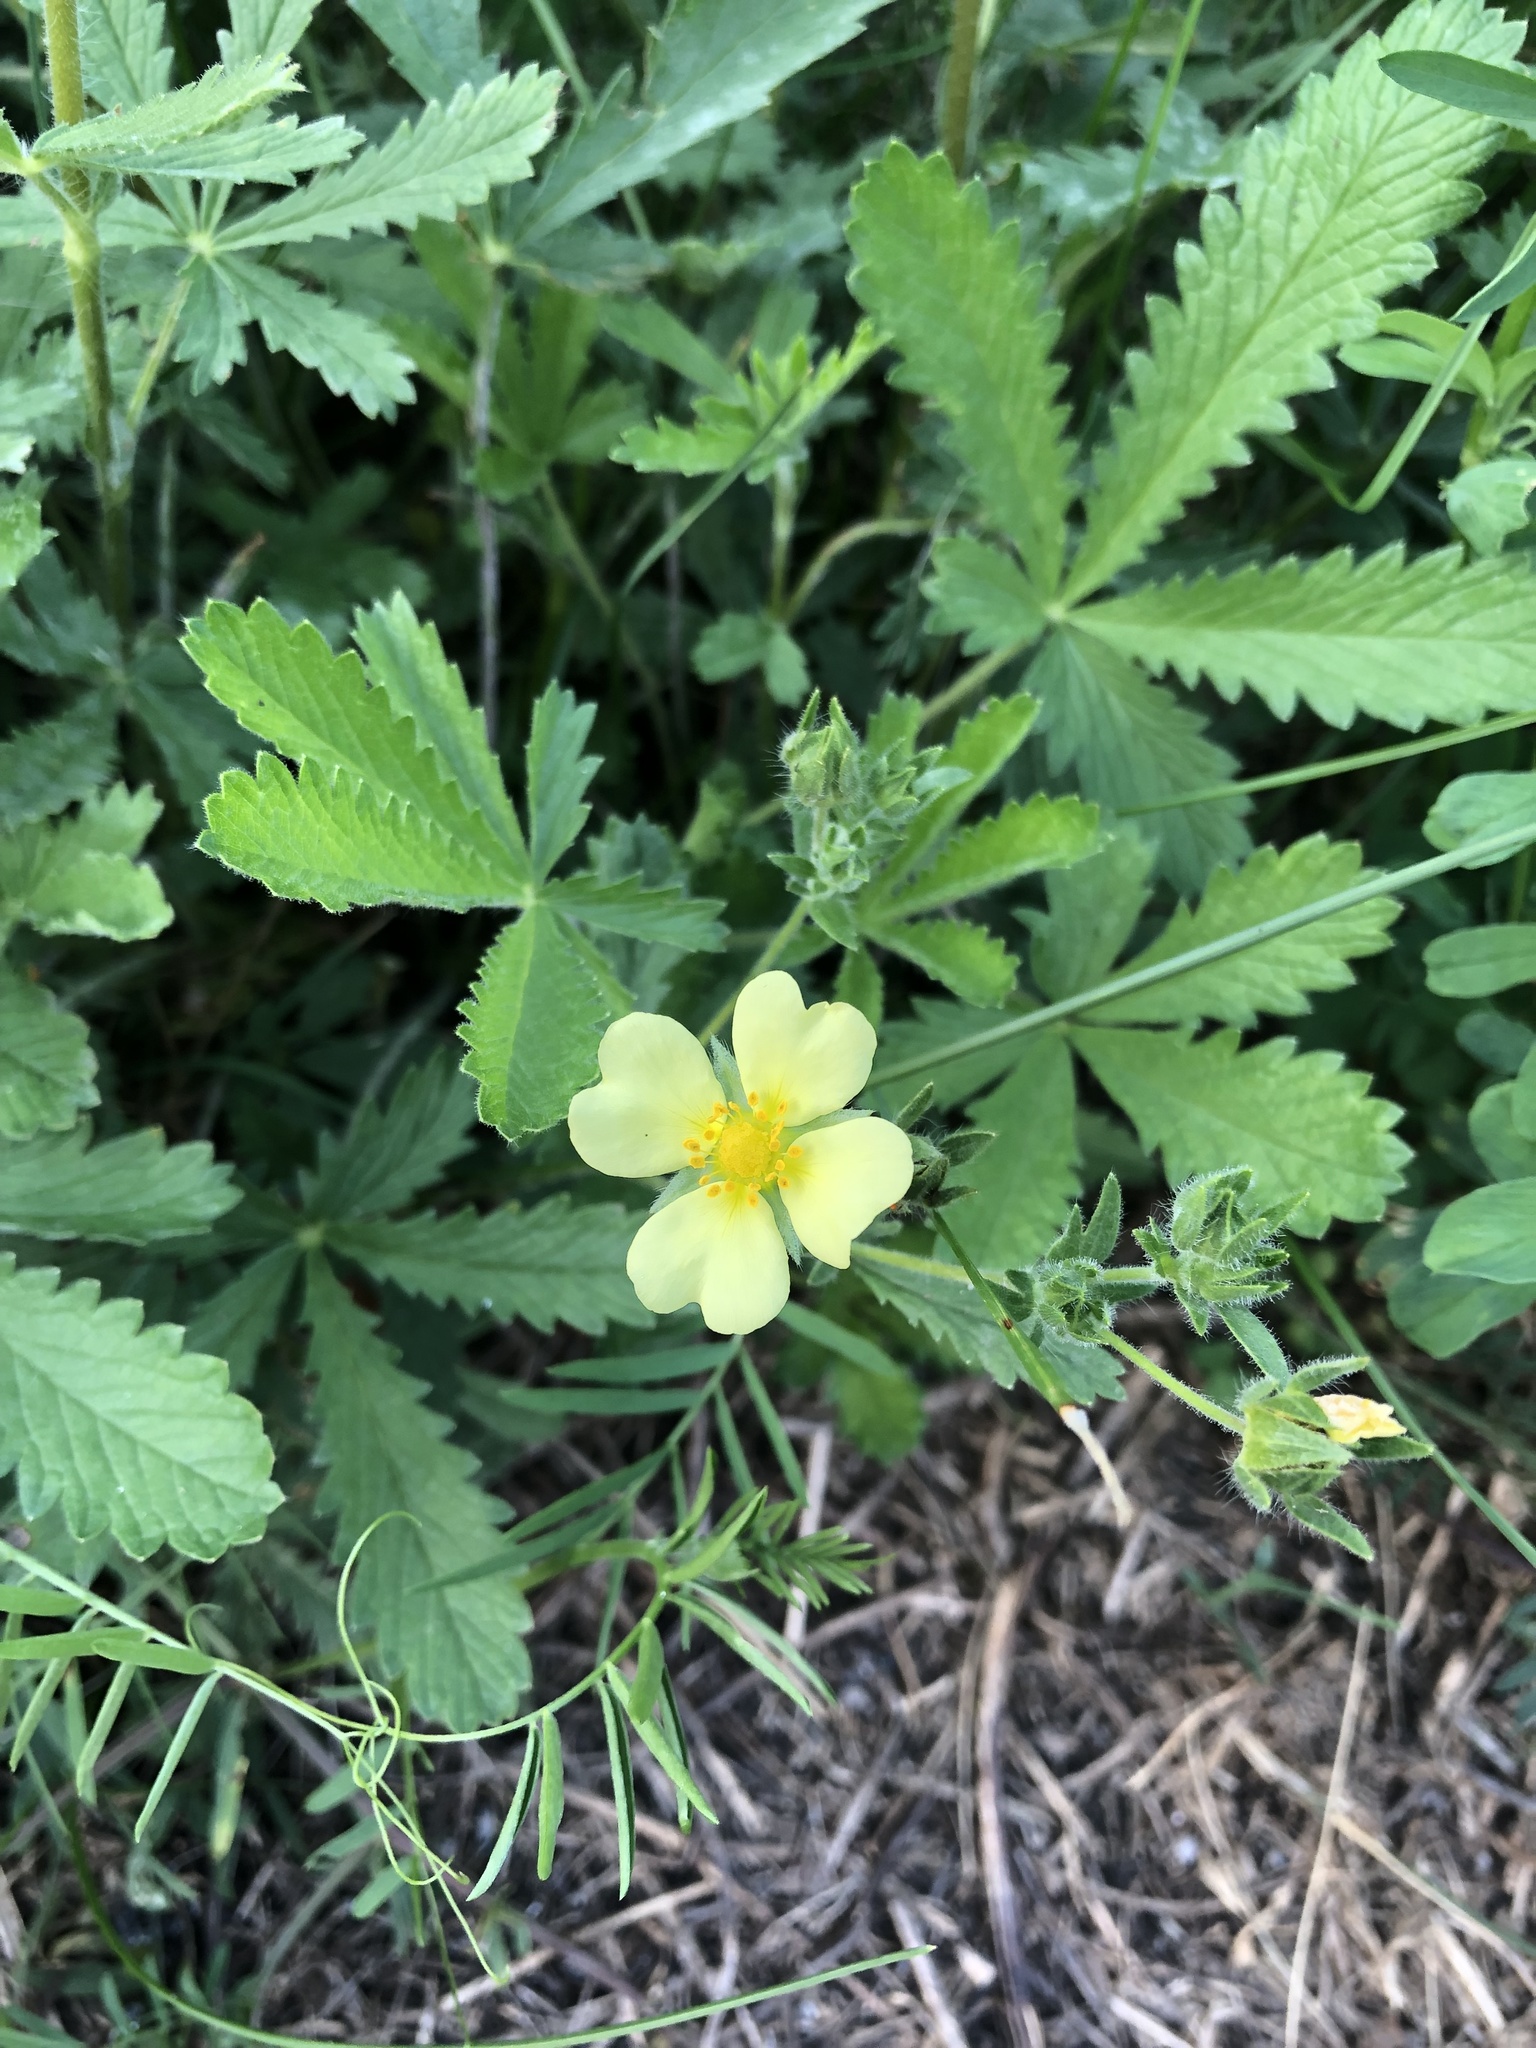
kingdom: Plantae
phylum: Tracheophyta
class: Magnoliopsida
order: Rosales
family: Rosaceae
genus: Potentilla
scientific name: Potentilla recta
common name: Sulphur cinquefoil
